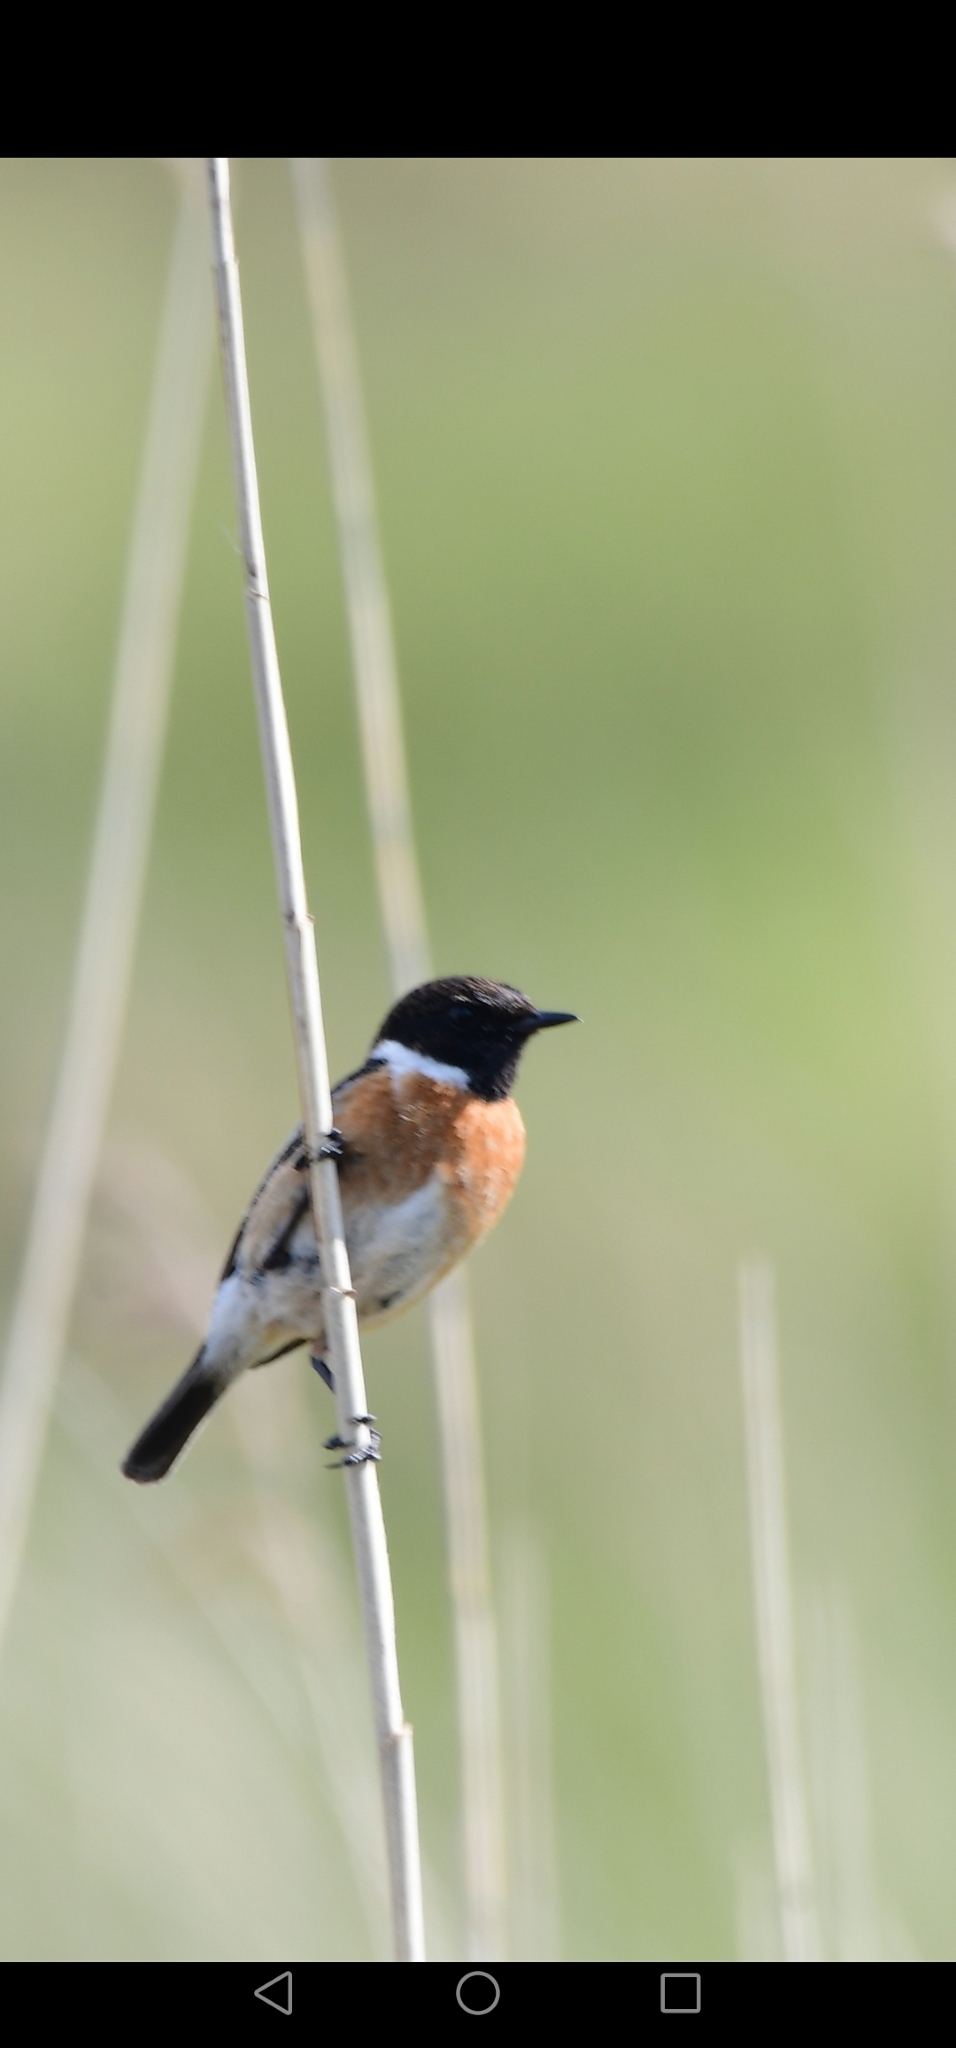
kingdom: Animalia
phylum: Chordata
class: Aves
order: Passeriformes
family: Muscicapidae
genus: Saxicola
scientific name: Saxicola rubicola
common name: European stonechat
